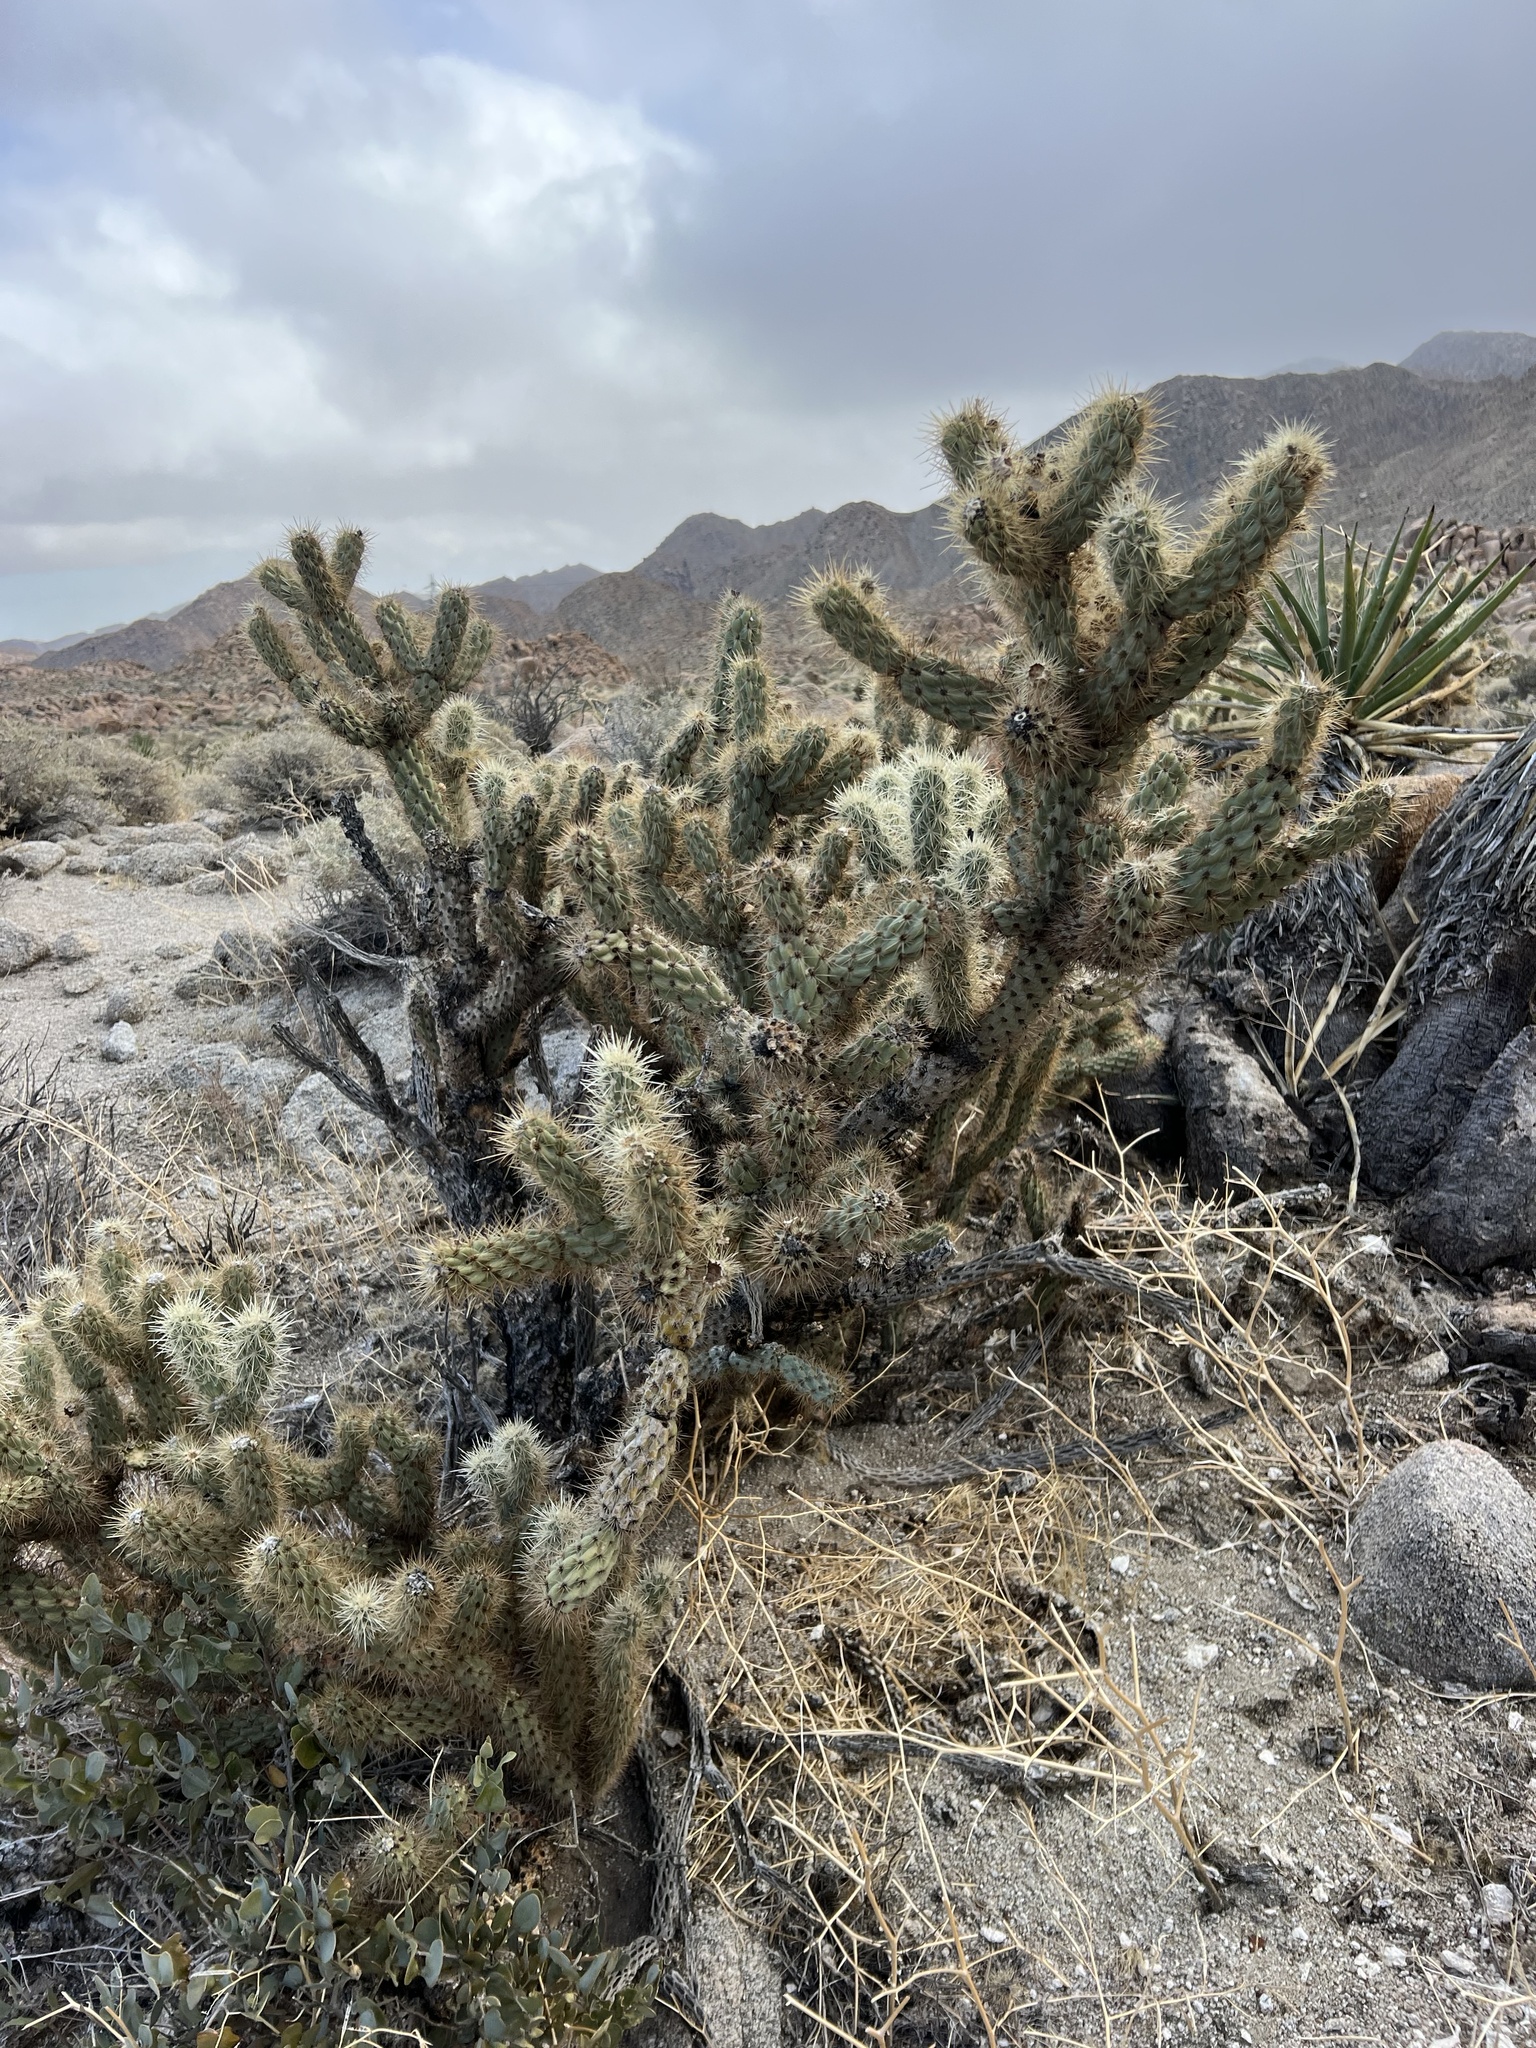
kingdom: Plantae
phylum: Tracheophyta
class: Magnoliopsida
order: Caryophyllales
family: Cactaceae
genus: Cylindropuntia
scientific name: Cylindropuntia ganderi
